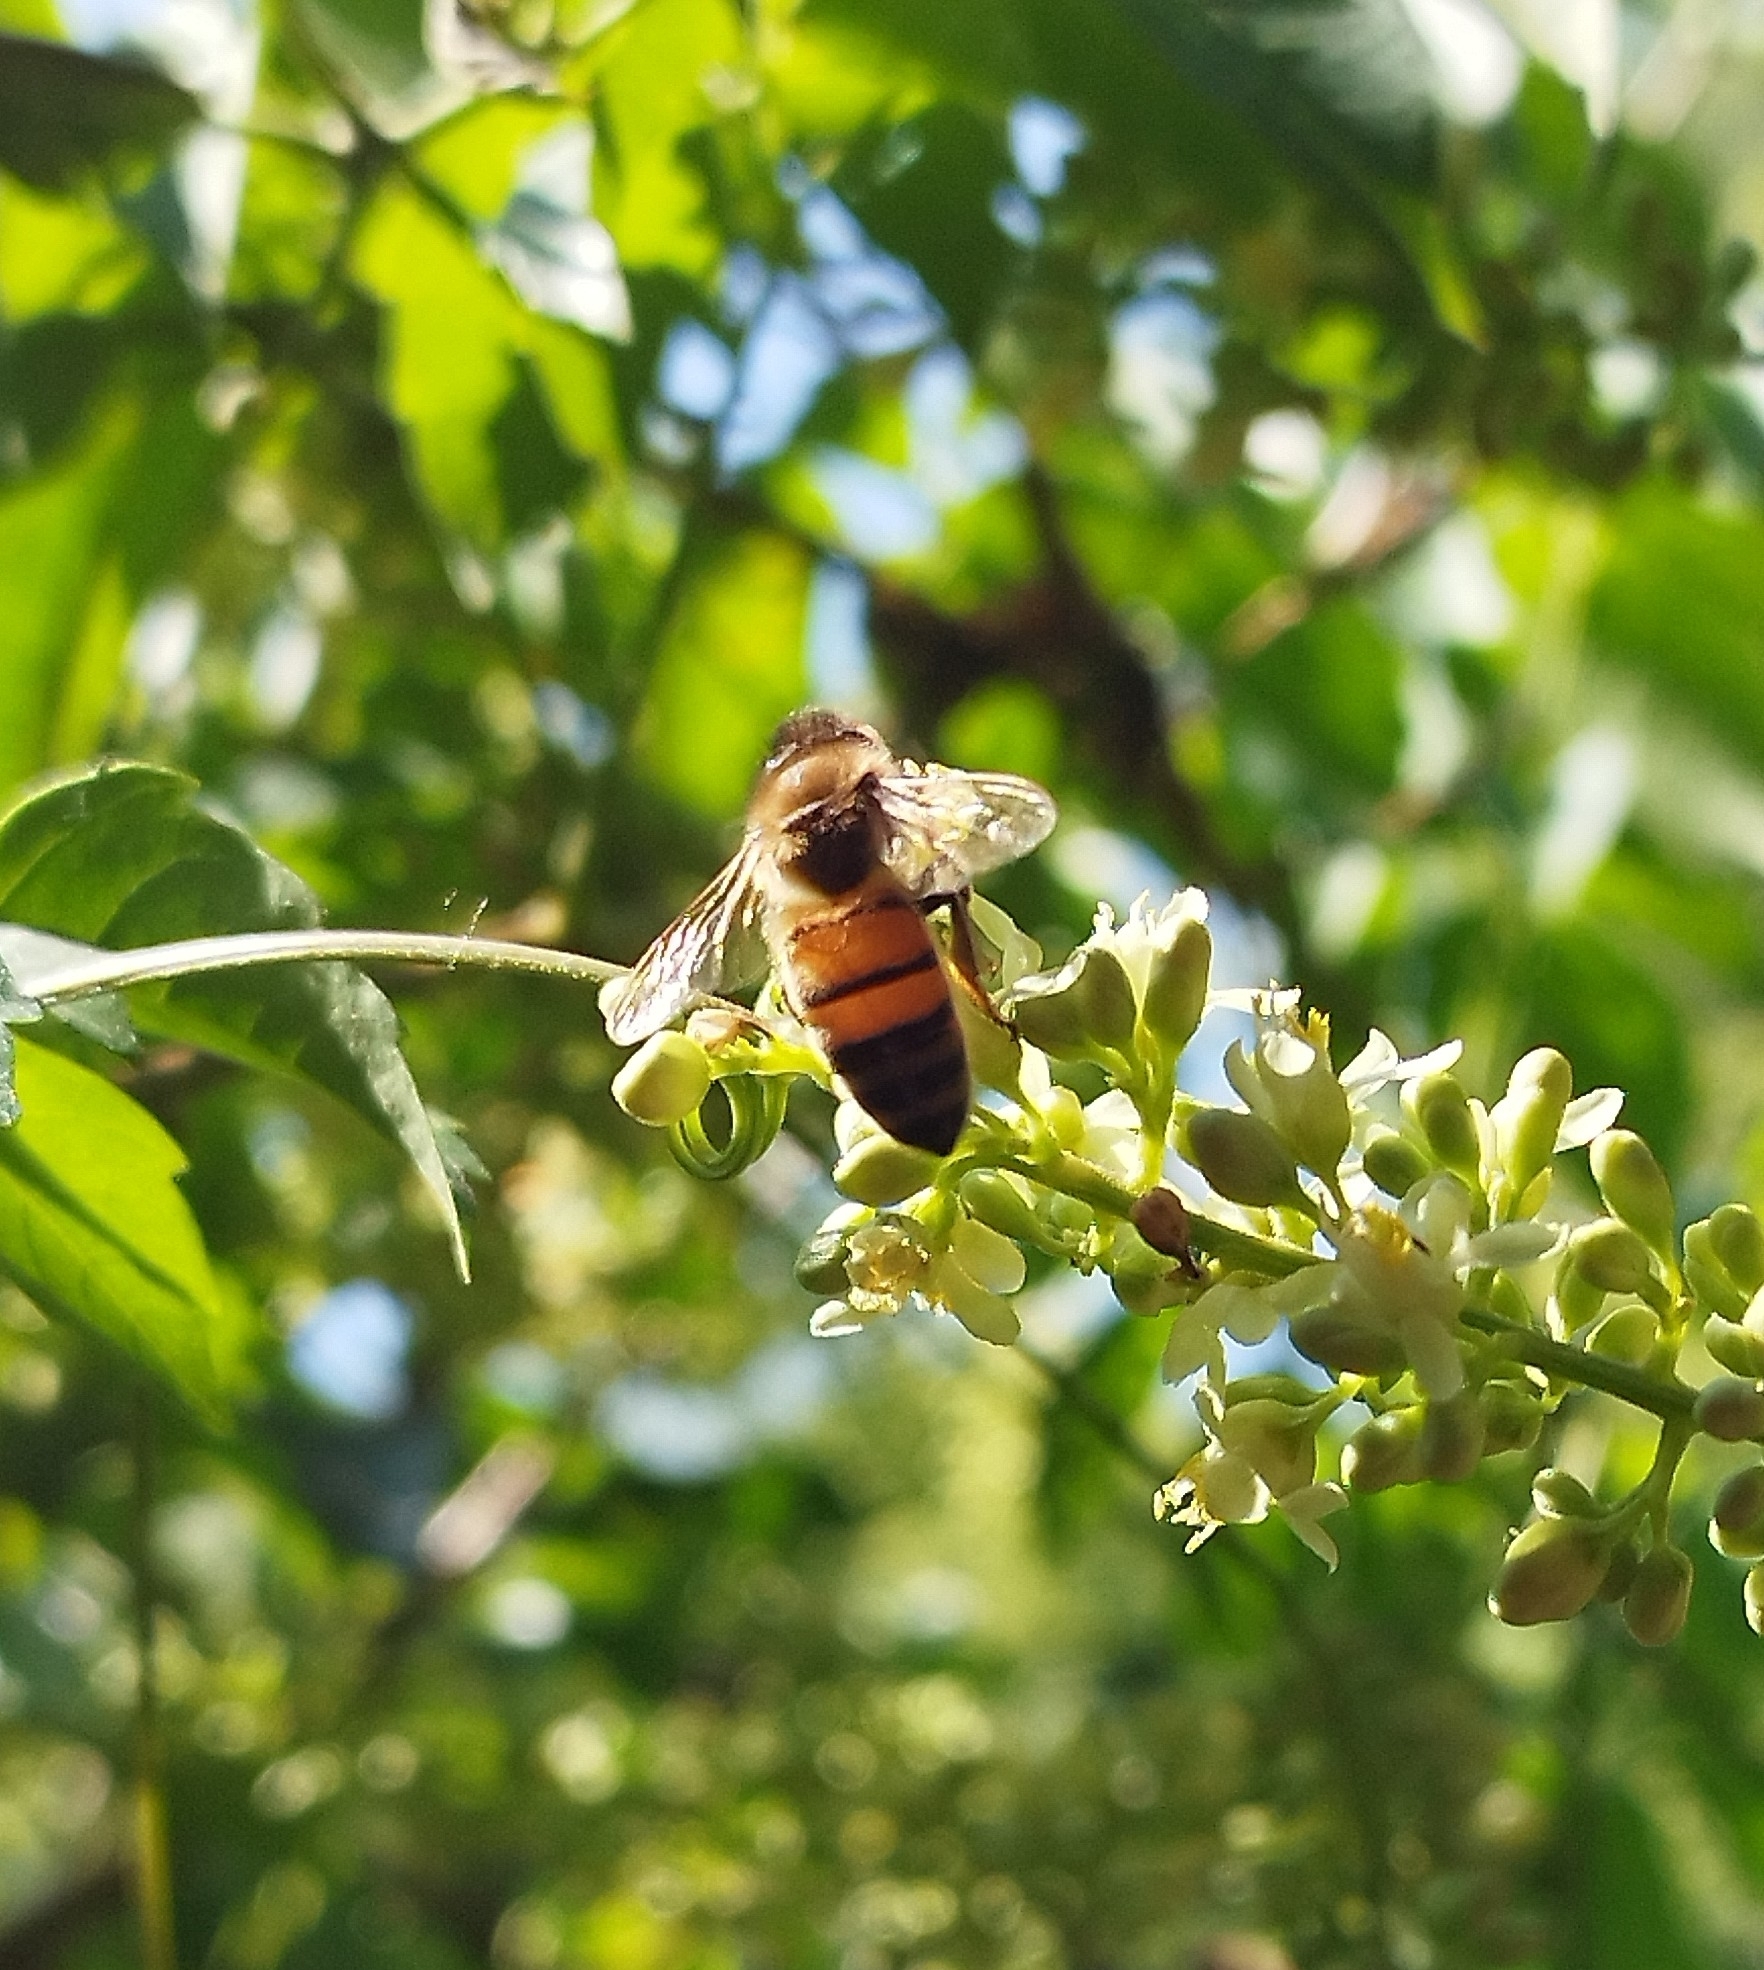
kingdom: Animalia
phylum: Arthropoda
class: Insecta
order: Hymenoptera
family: Apidae
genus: Apis
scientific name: Apis mellifera
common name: Honey bee
